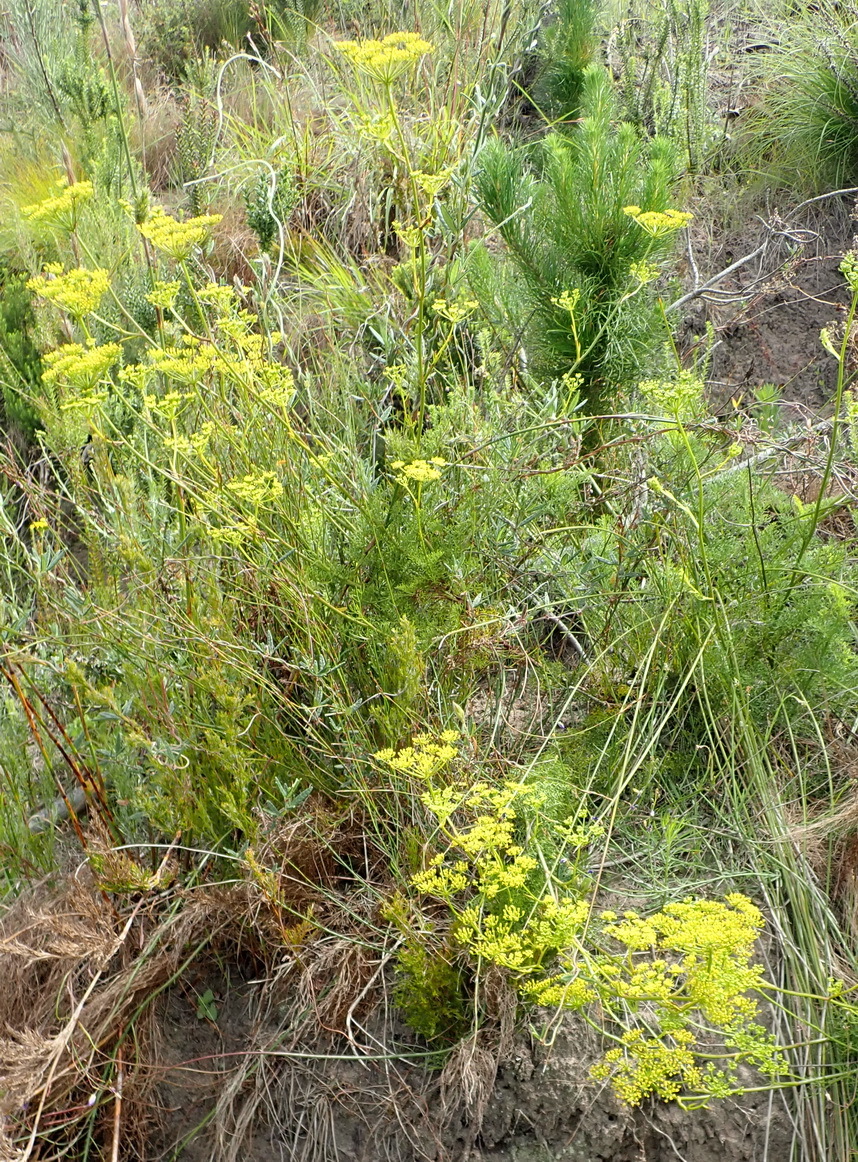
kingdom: Plantae
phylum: Tracheophyta
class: Magnoliopsida
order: Apiales
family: Apiaceae
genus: Notobubon
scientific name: Notobubon ferulaceum
